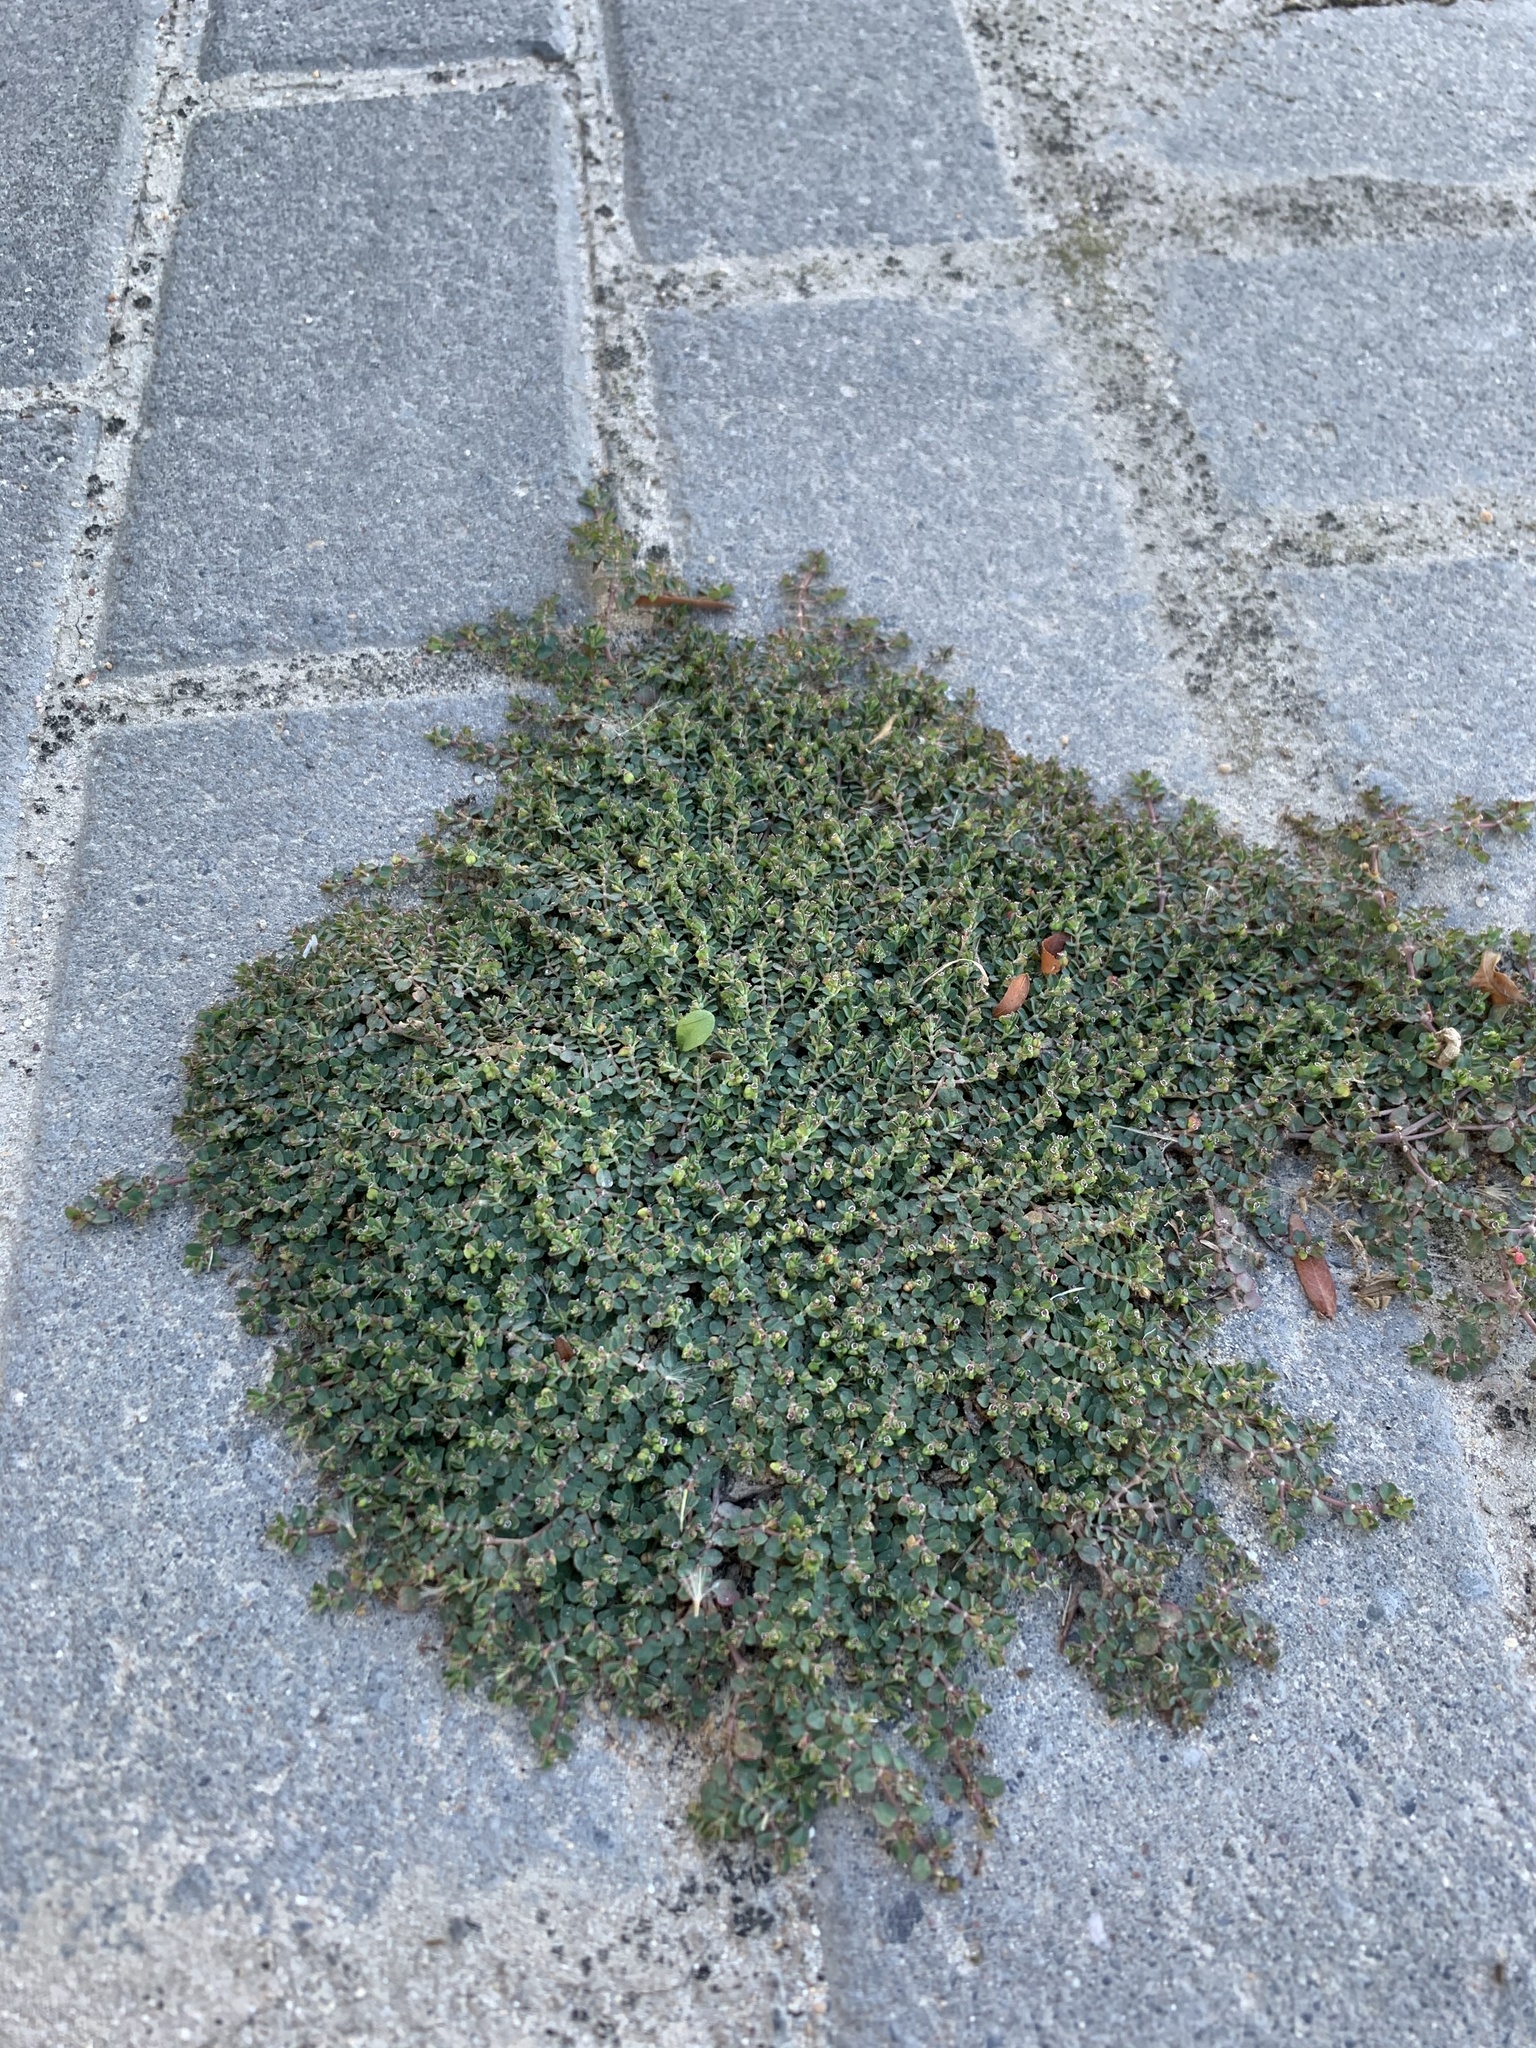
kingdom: Plantae
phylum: Tracheophyta
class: Magnoliopsida
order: Malpighiales
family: Euphorbiaceae
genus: Euphorbia
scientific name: Euphorbia serpens
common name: Matted sandmat
